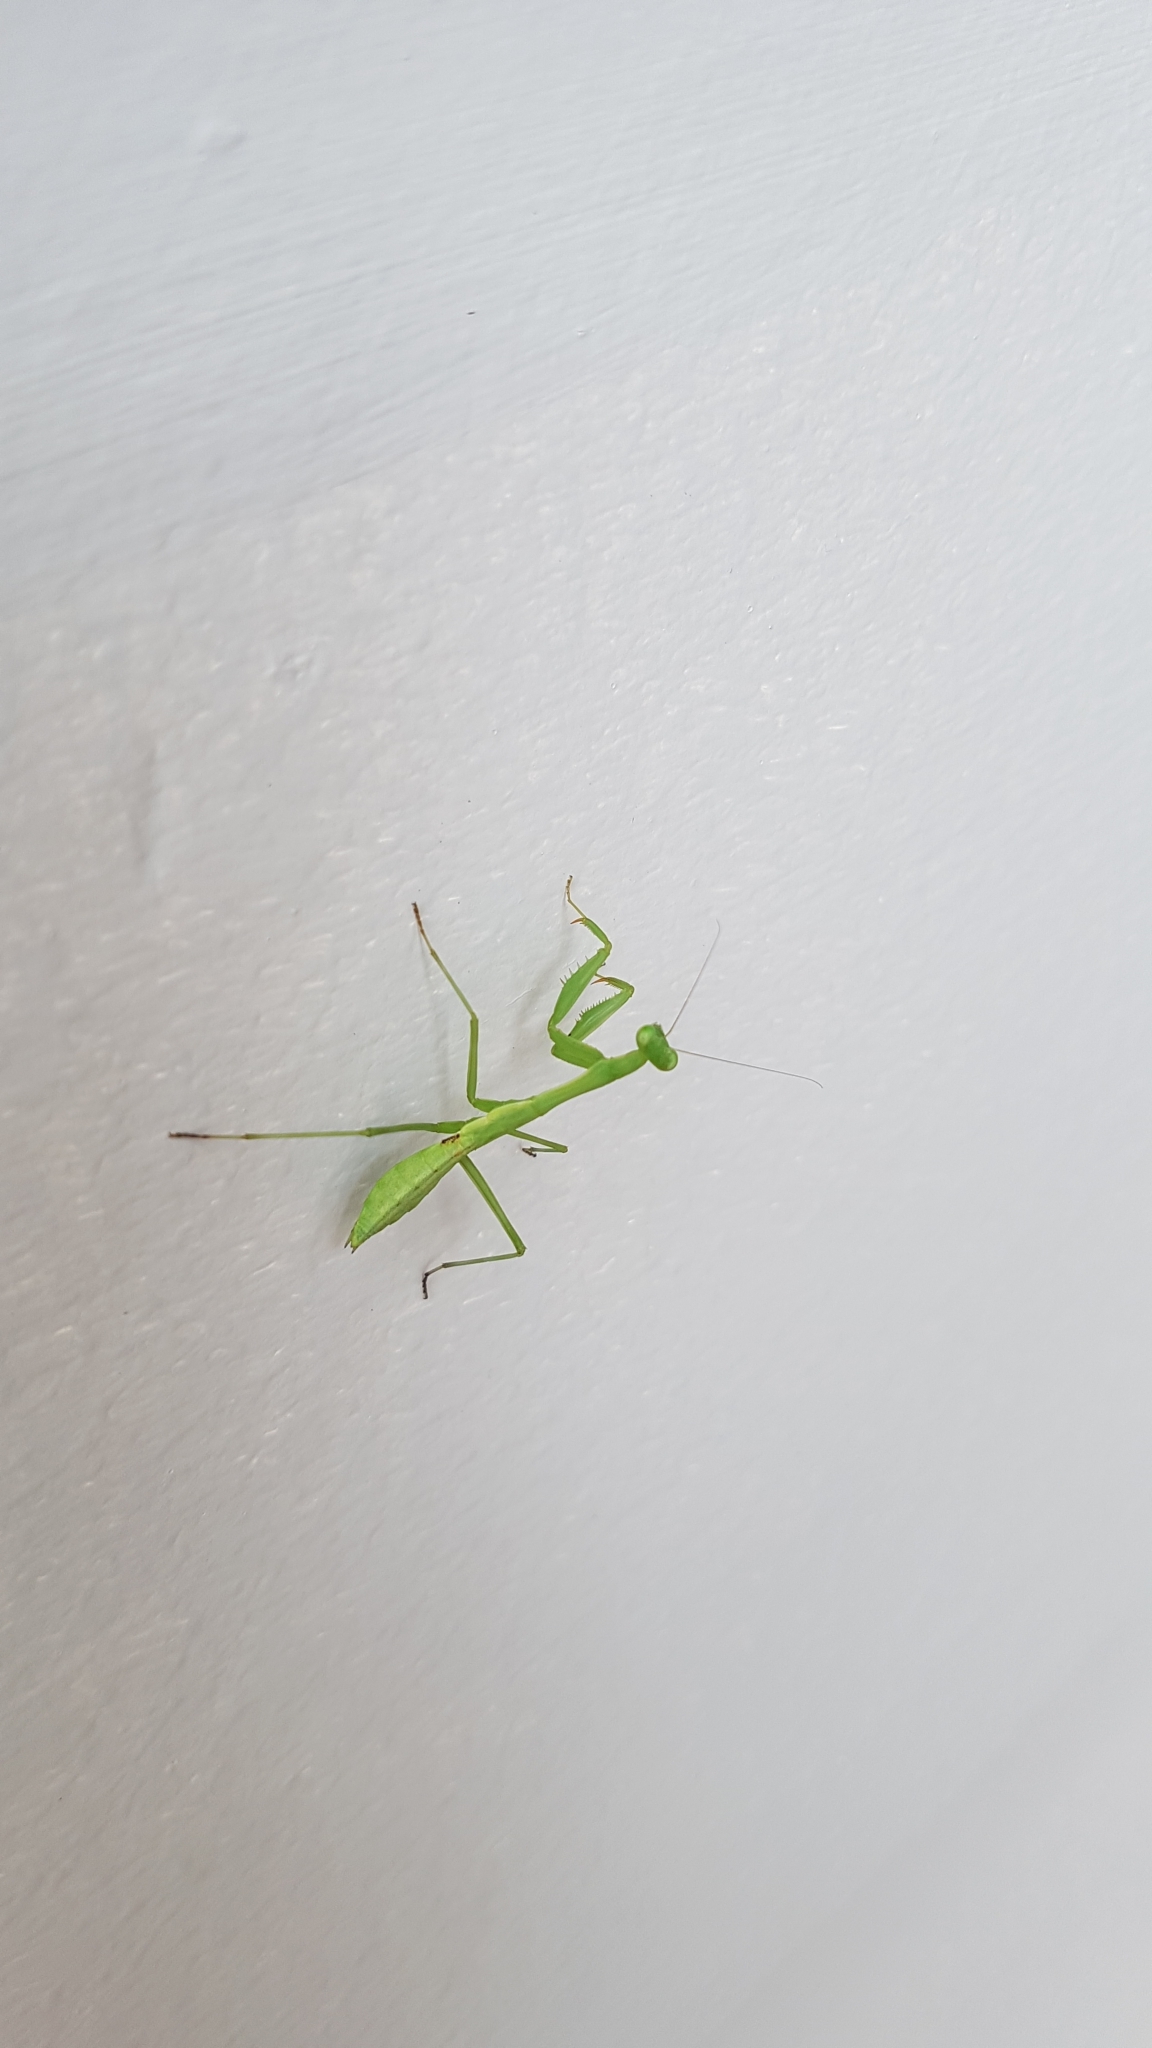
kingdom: Animalia
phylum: Arthropoda
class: Insecta
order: Mantodea
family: Miomantidae
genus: Miomantis
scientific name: Miomantis caffra
